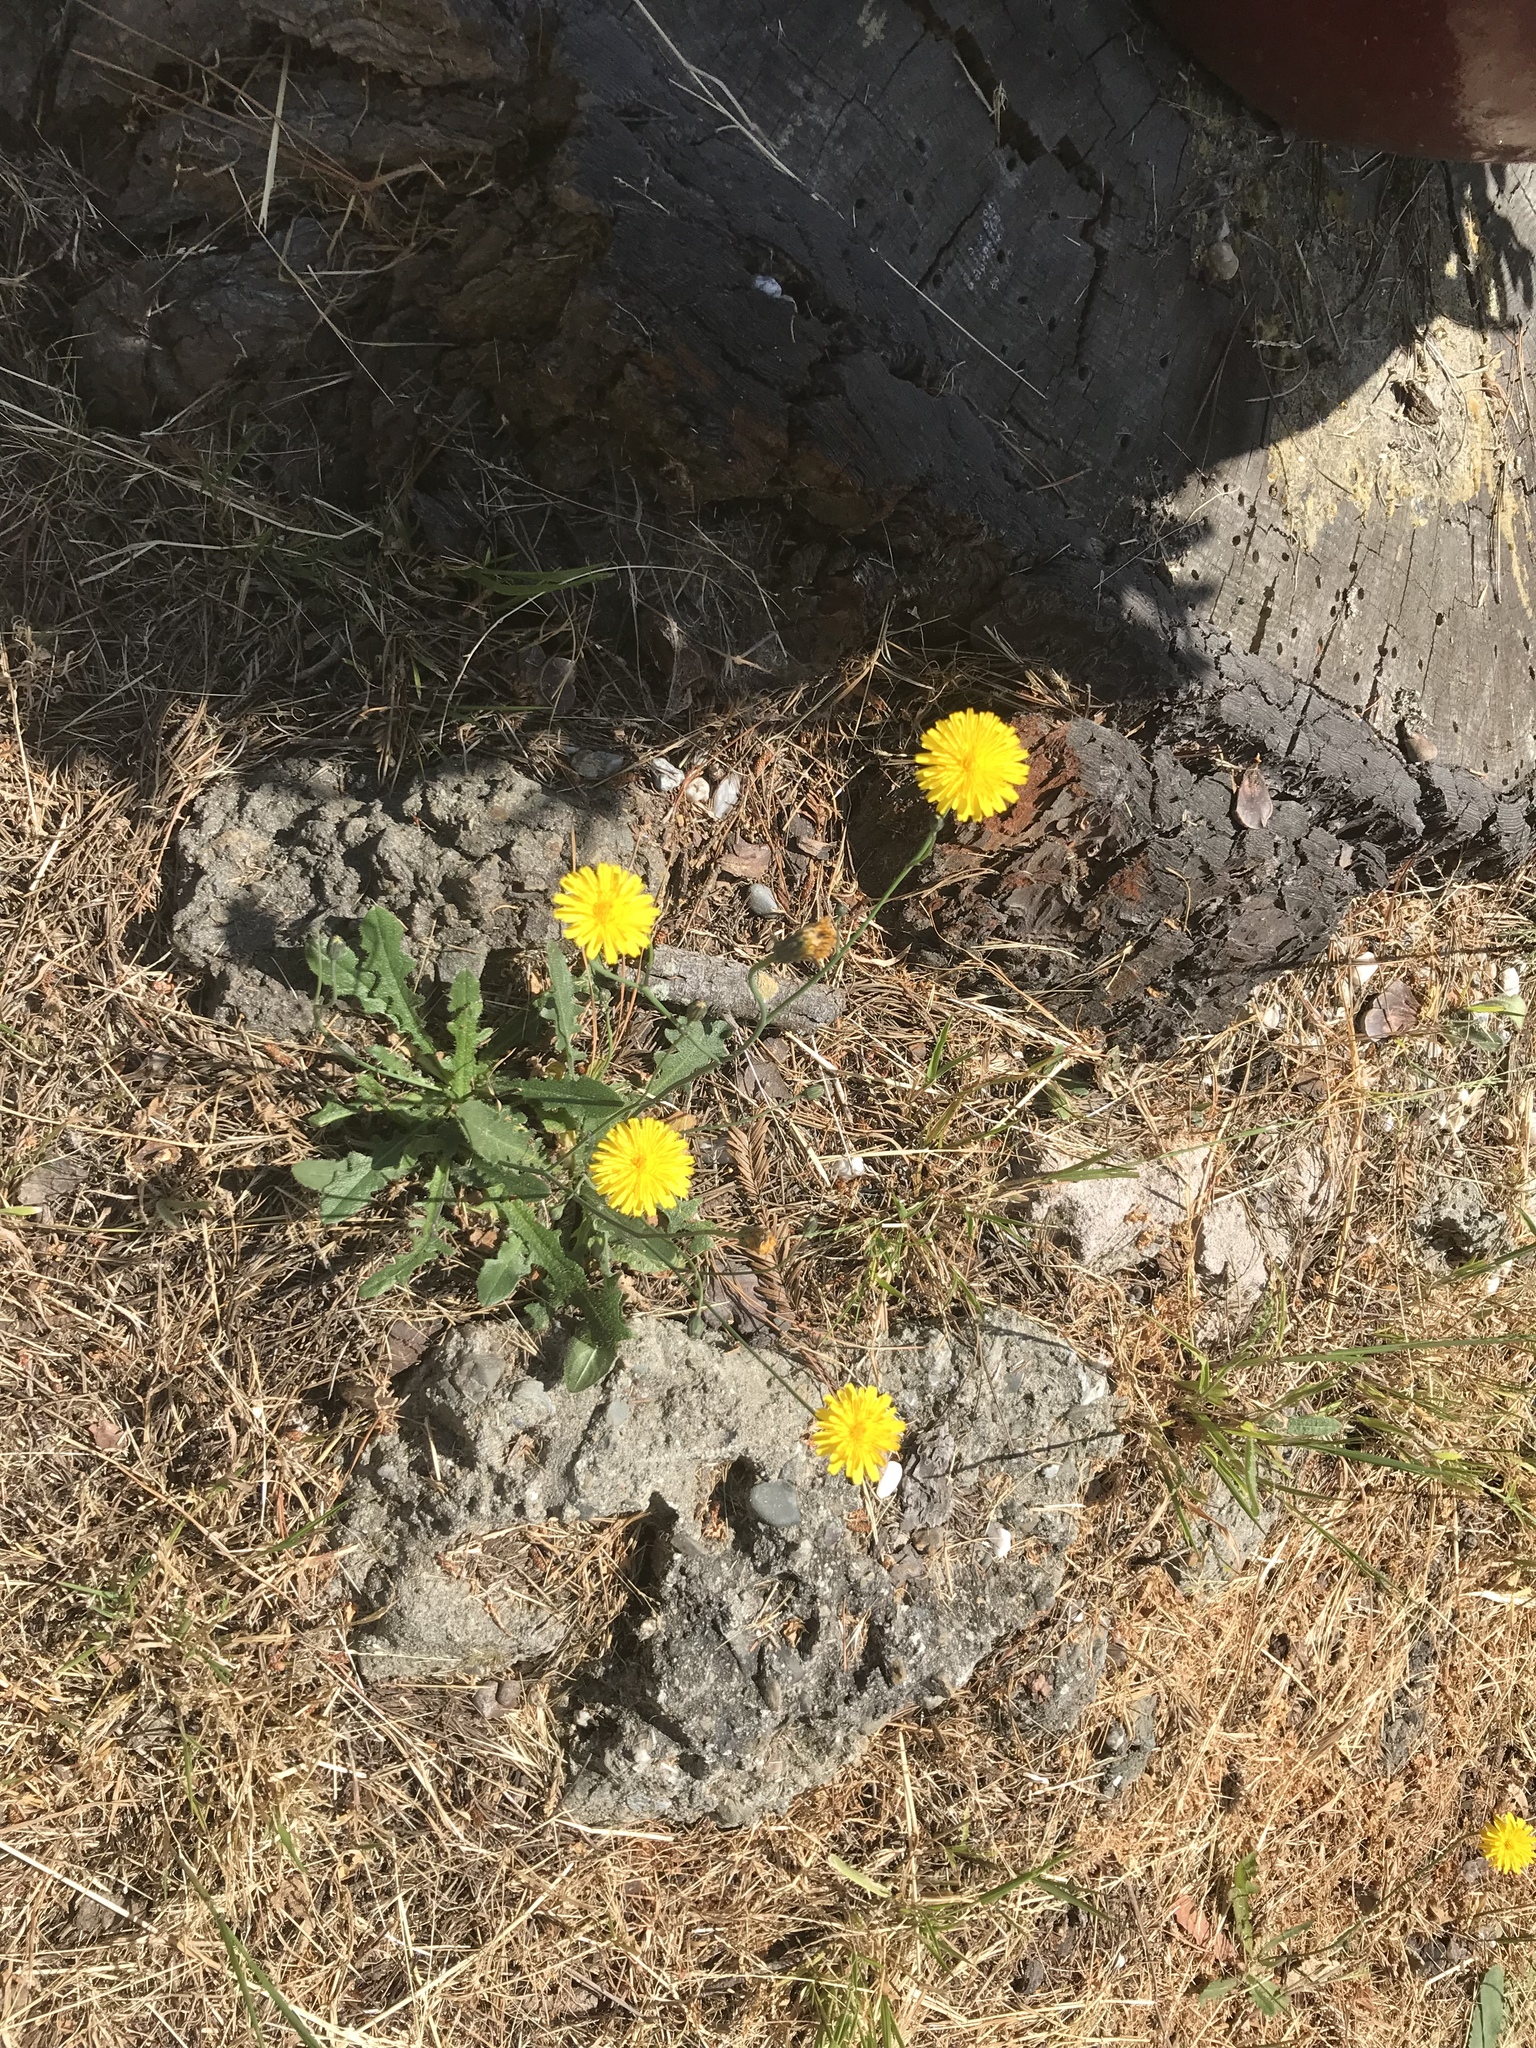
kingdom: Plantae
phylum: Tracheophyta
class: Magnoliopsida
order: Asterales
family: Asteraceae
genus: Helminthotheca
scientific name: Helminthotheca echioides
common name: Ox-tongue
